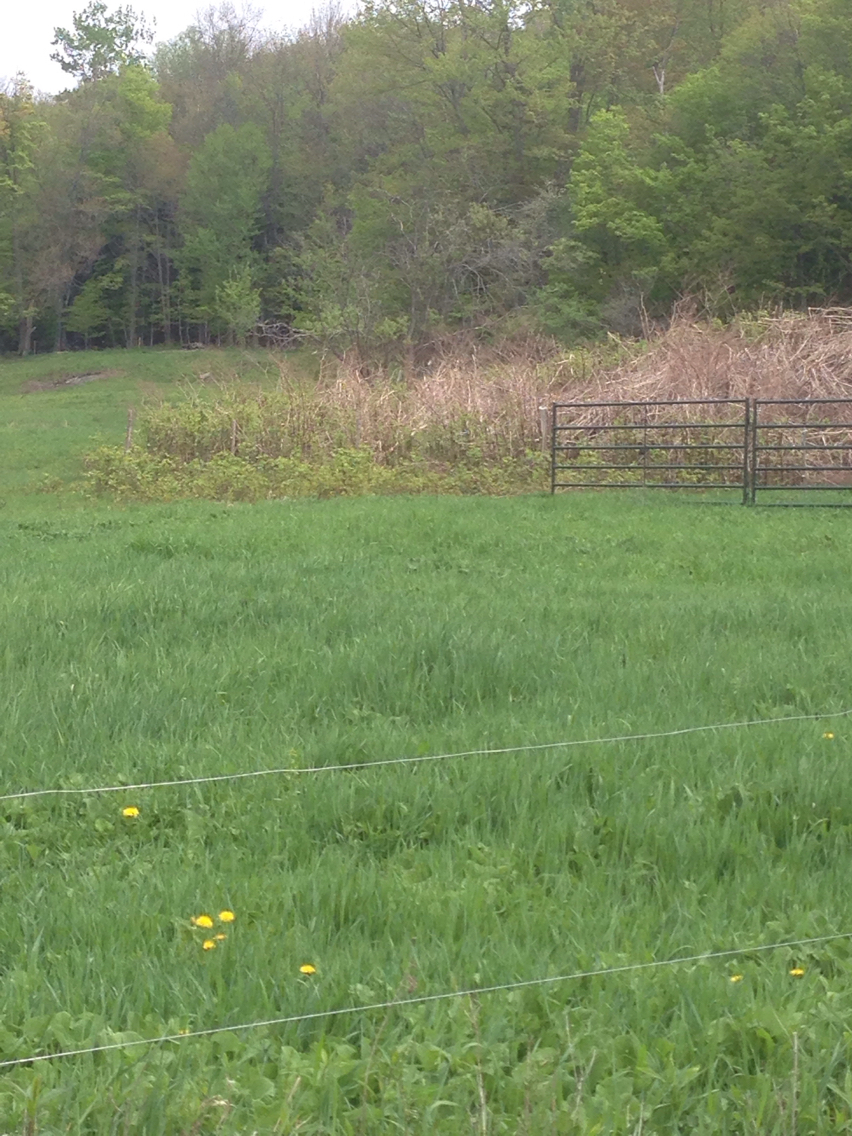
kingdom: Plantae
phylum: Tracheophyta
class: Magnoliopsida
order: Caryophyllales
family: Polygonaceae
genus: Reynoutria
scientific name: Reynoutria japonica
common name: Japanese knotweed
